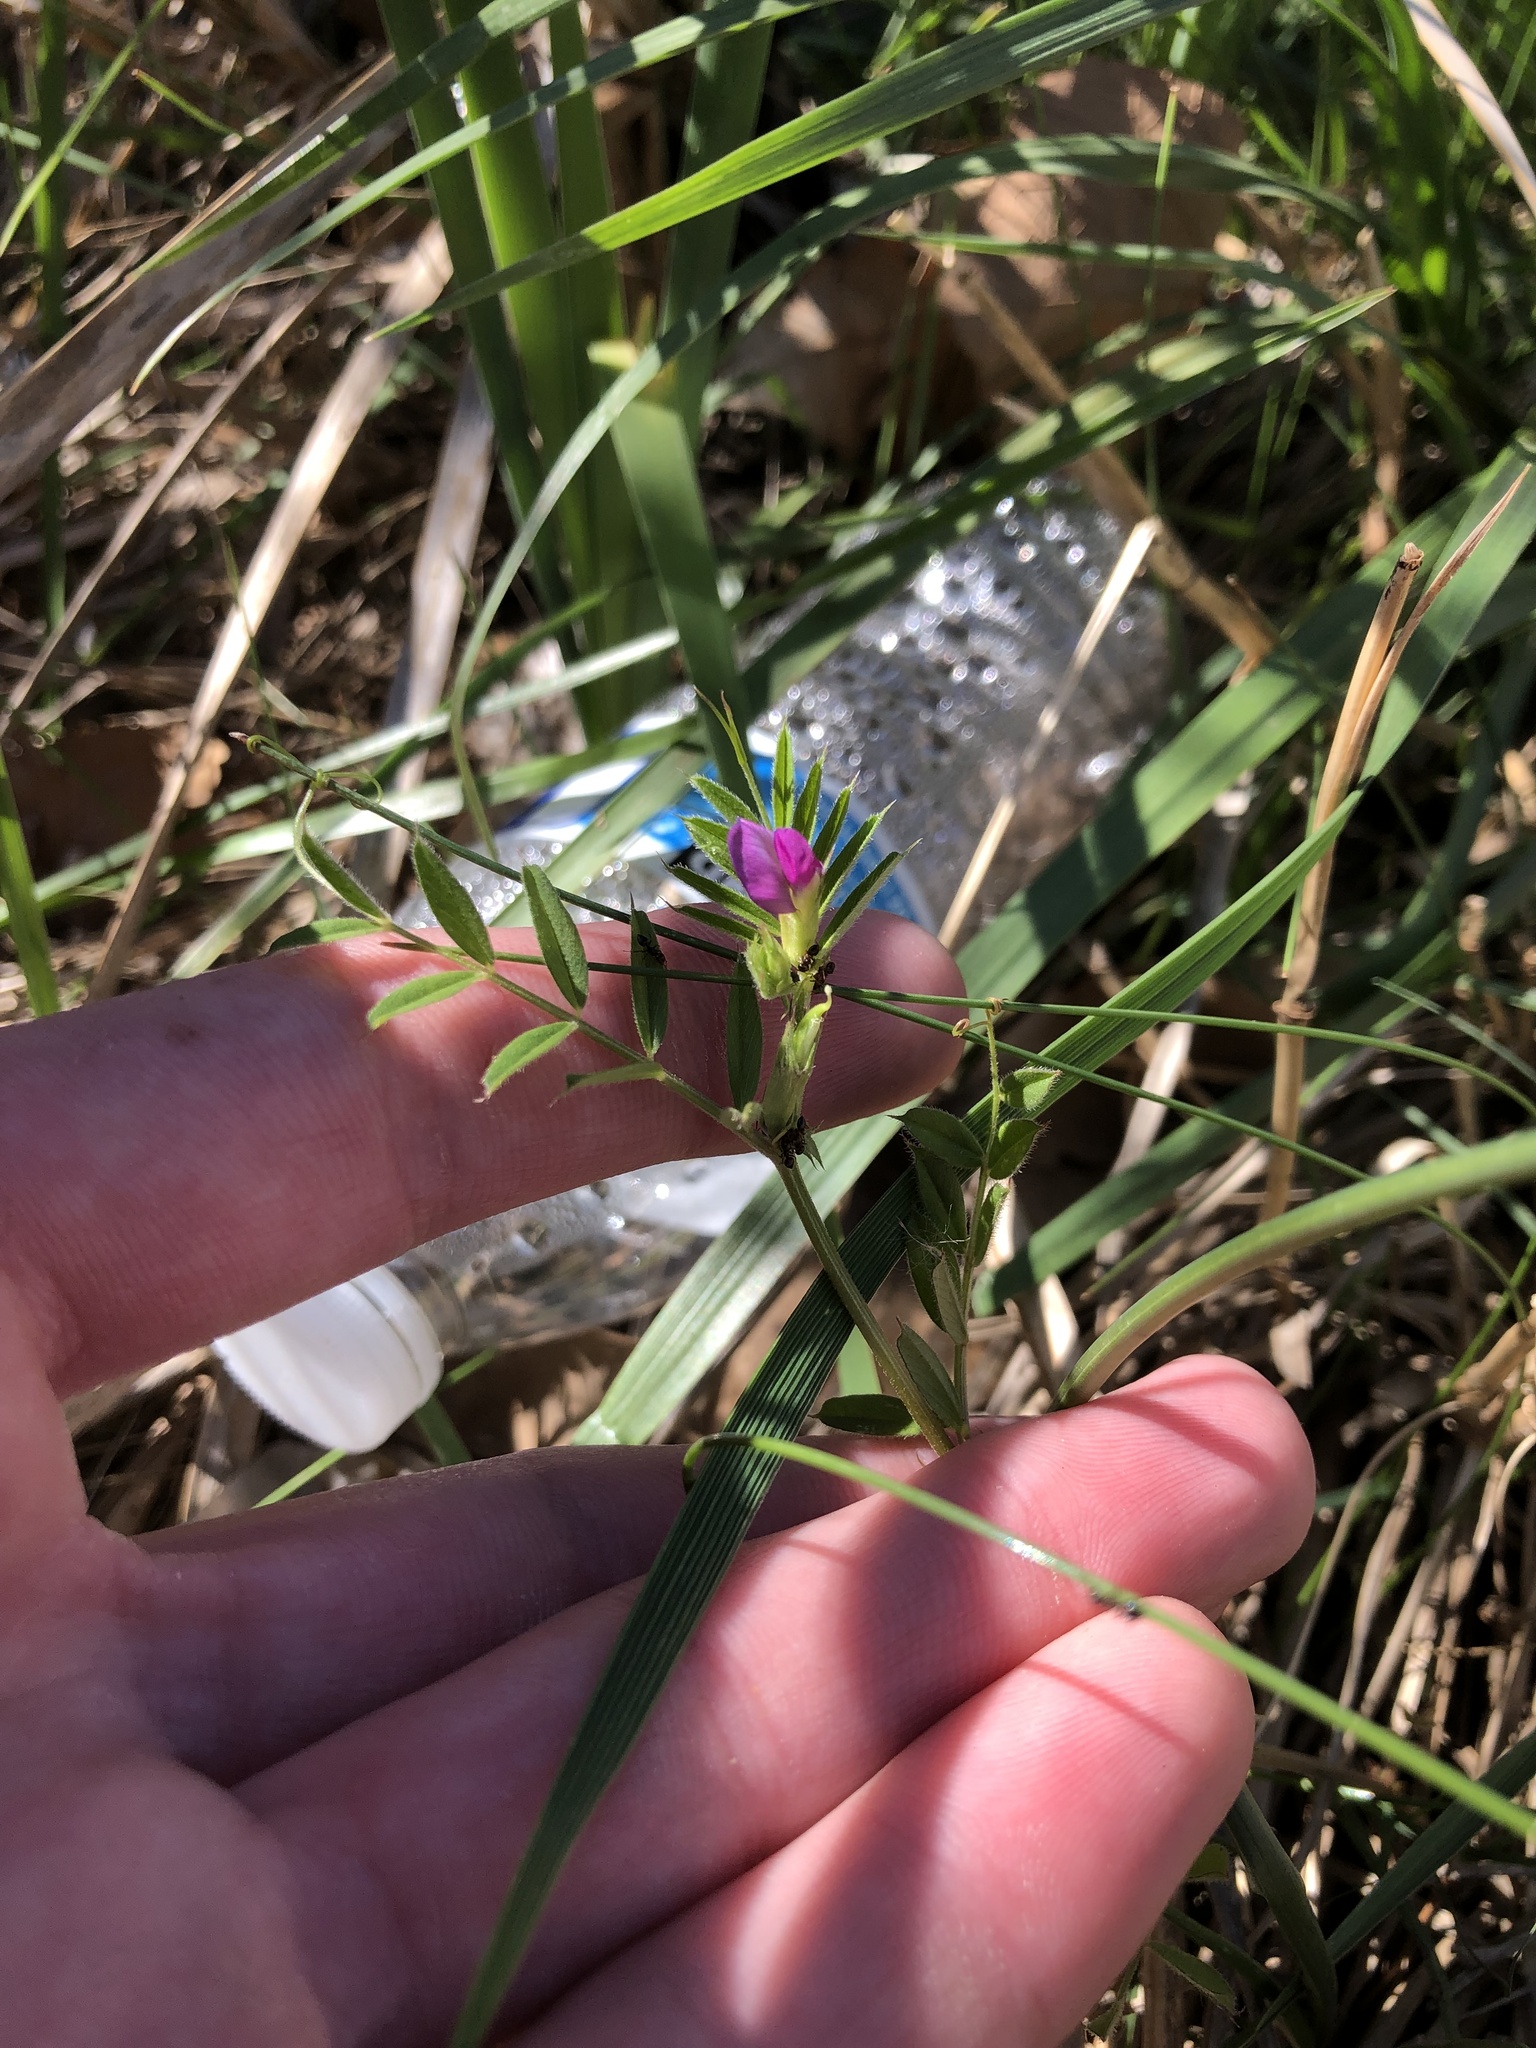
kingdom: Plantae
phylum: Tracheophyta
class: Magnoliopsida
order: Fabales
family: Fabaceae
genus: Vicia
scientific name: Vicia sativa
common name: Garden vetch
